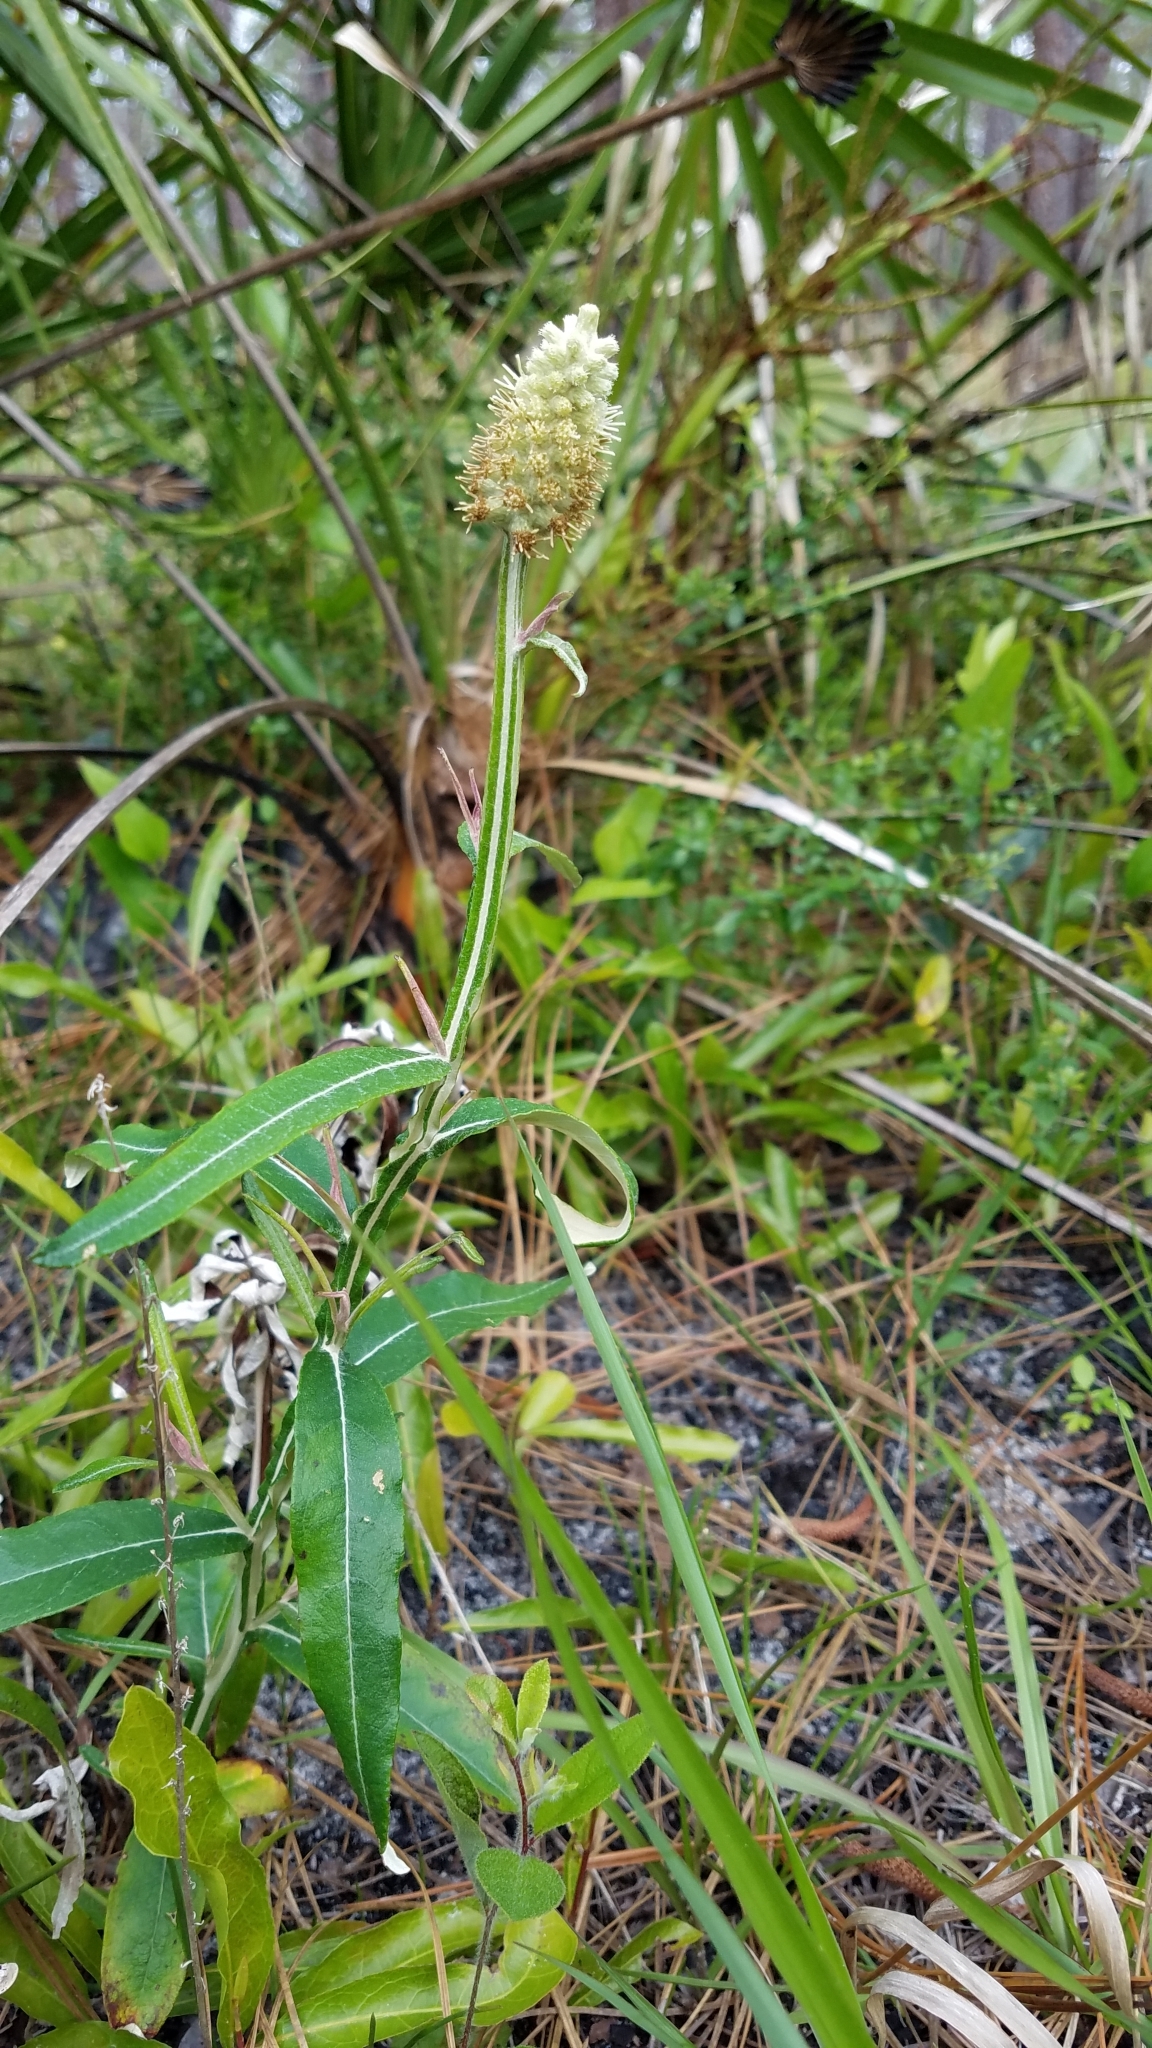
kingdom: Plantae
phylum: Tracheophyta
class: Magnoliopsida
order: Asterales
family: Asteraceae
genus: Pterocaulon
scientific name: Pterocaulon pycnostachyum
